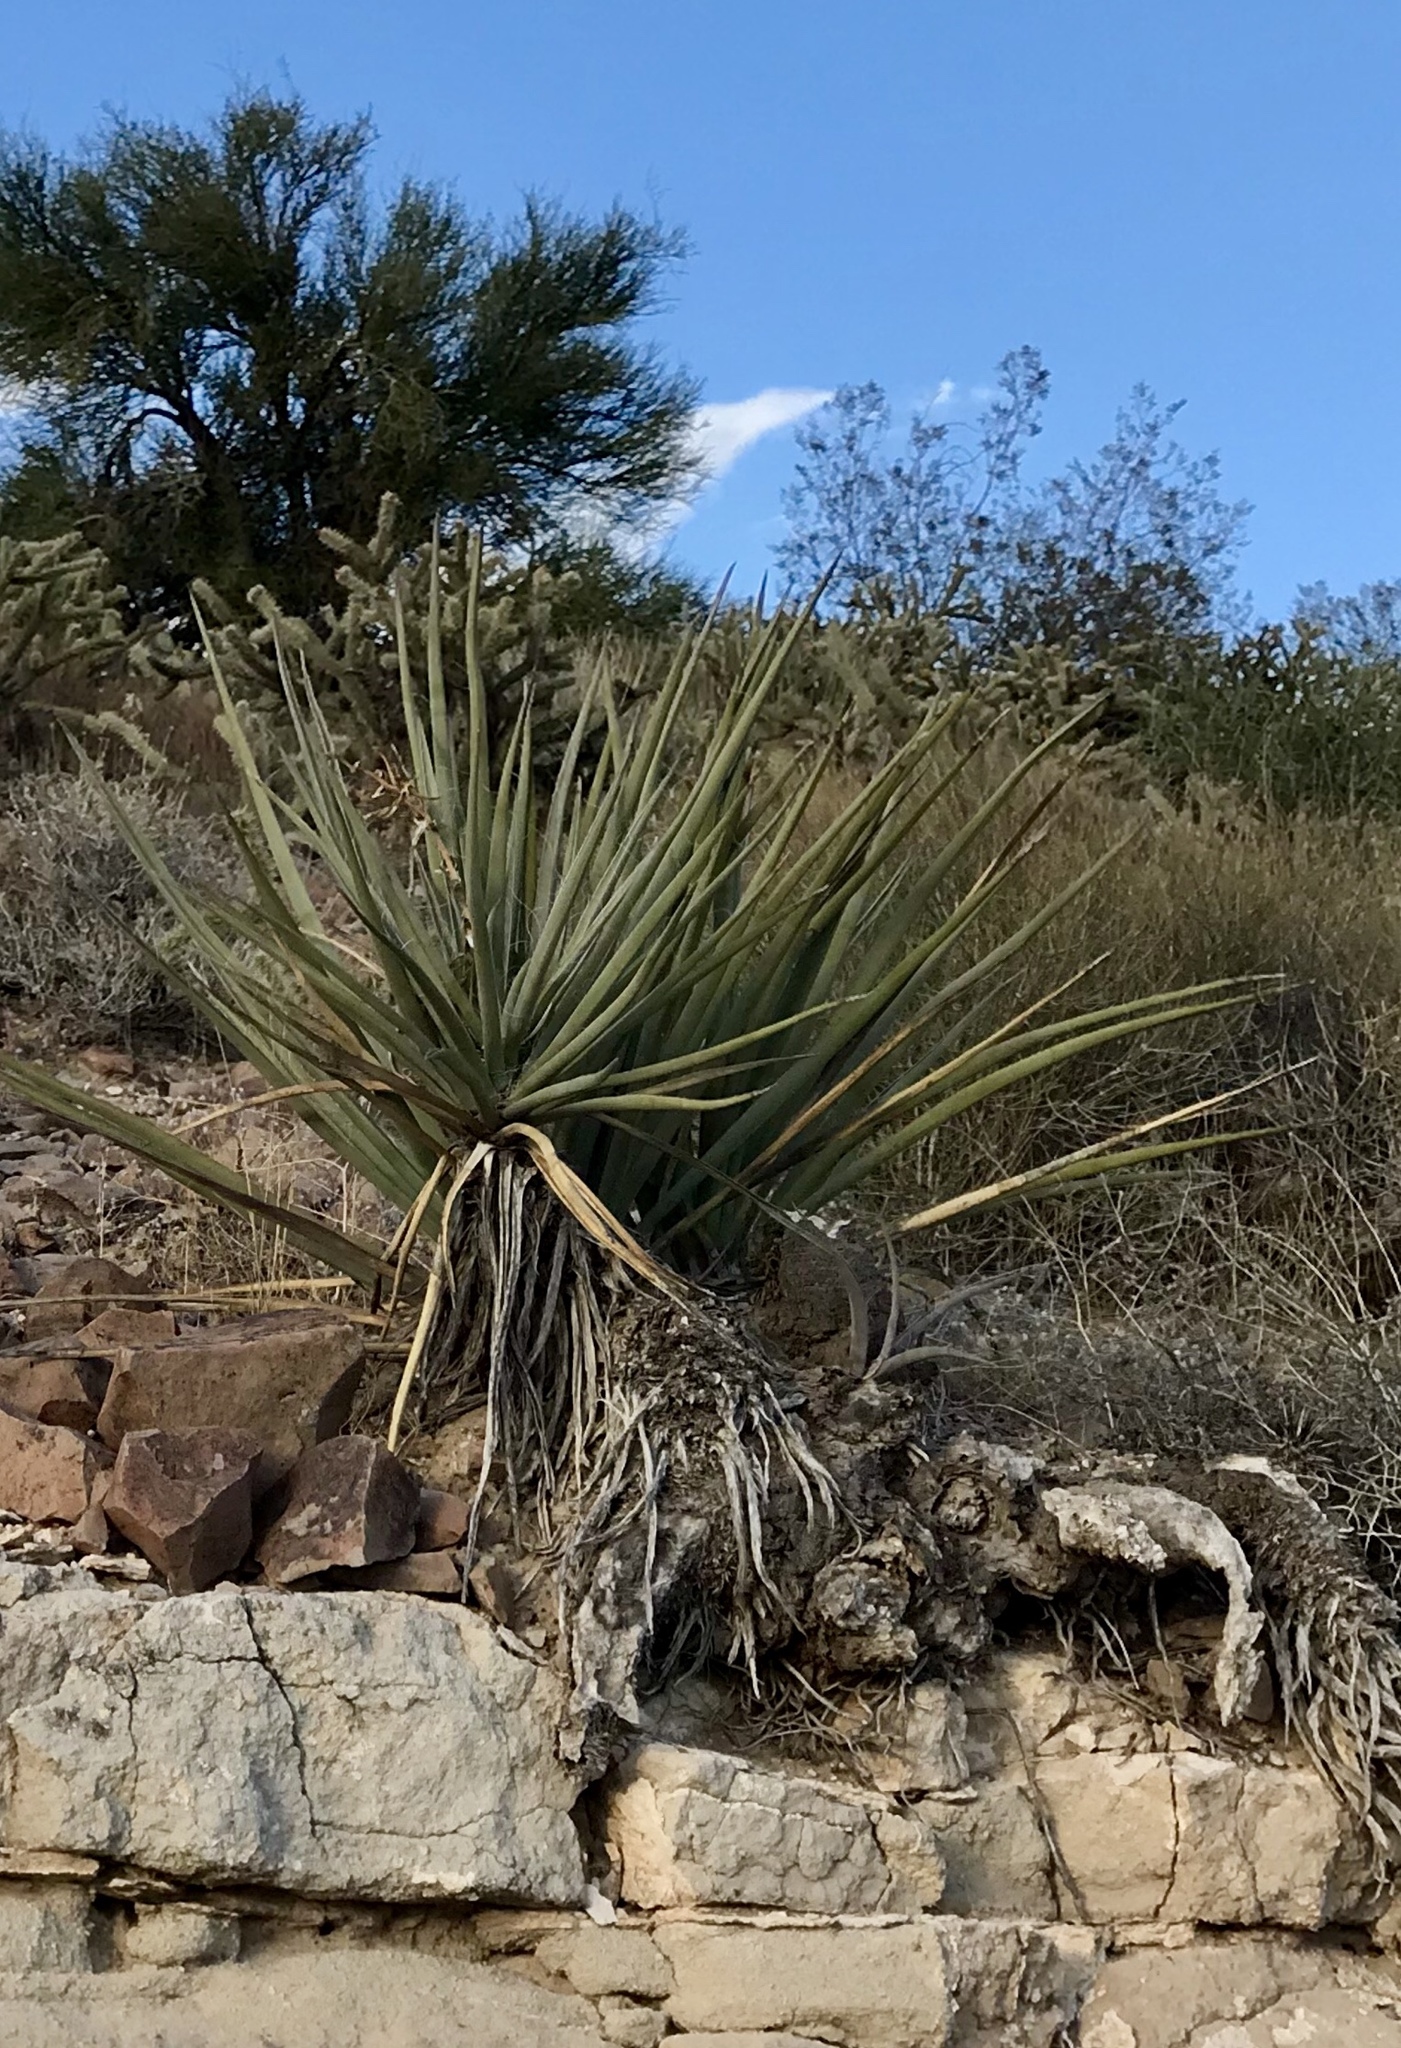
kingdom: Plantae
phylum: Tracheophyta
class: Liliopsida
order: Asparagales
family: Asparagaceae
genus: Yucca
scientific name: Yucca baccata
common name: Banana yucca
